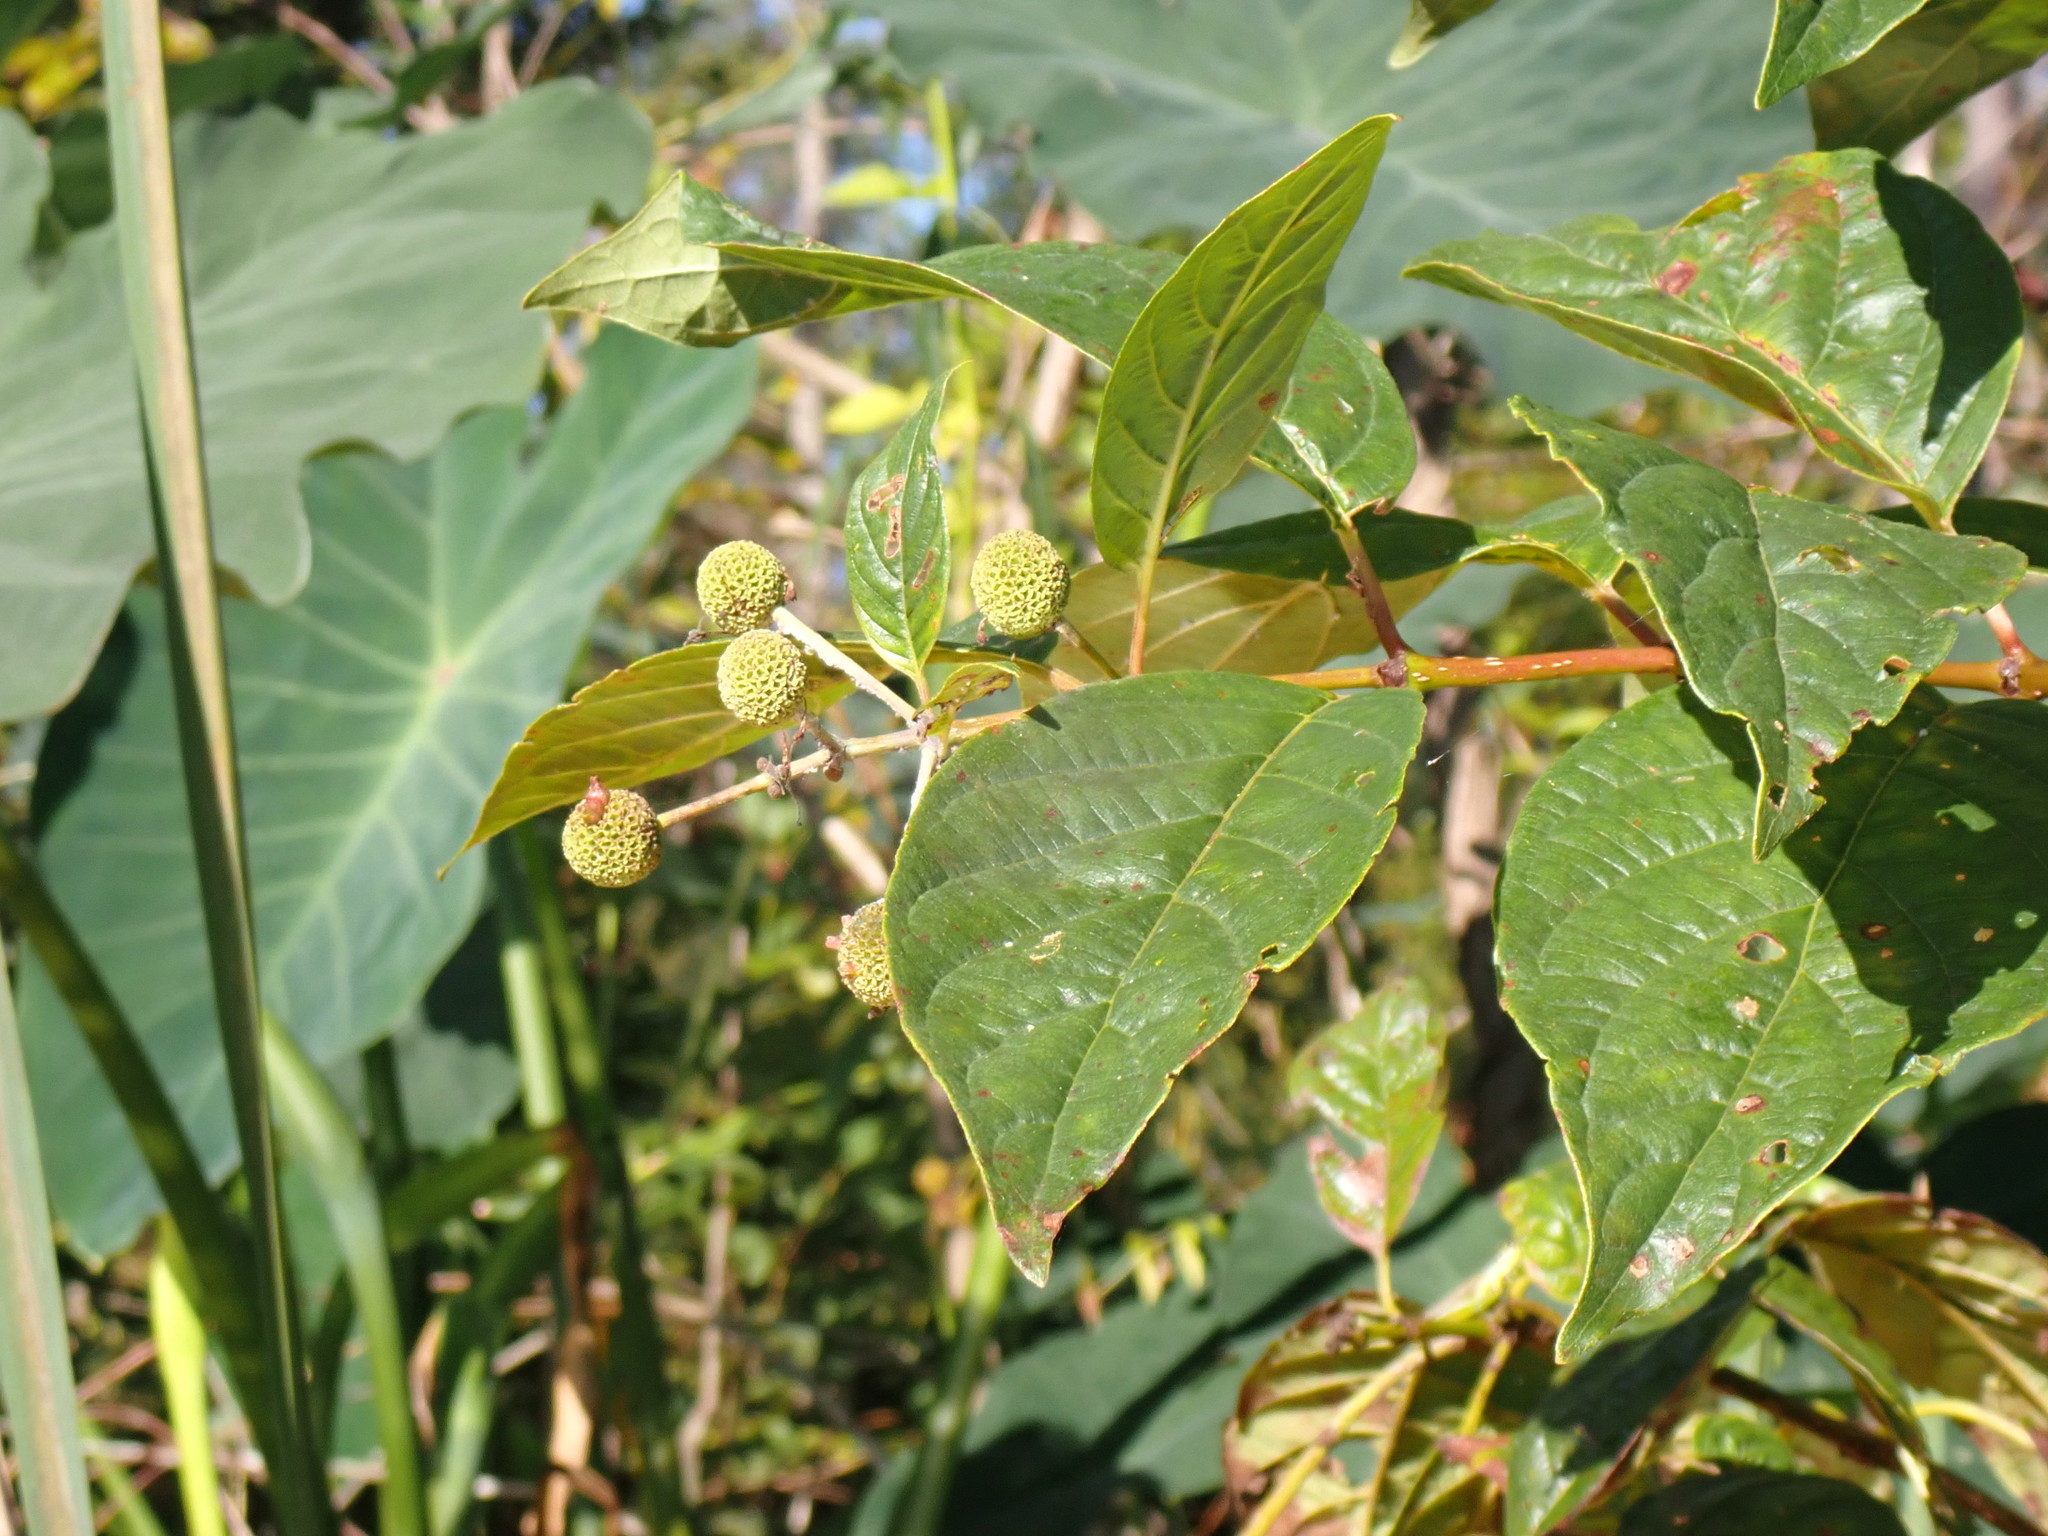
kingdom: Plantae
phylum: Tracheophyta
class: Magnoliopsida
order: Gentianales
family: Rubiaceae
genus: Cephalanthus
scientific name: Cephalanthus occidentalis
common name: Button-willow
